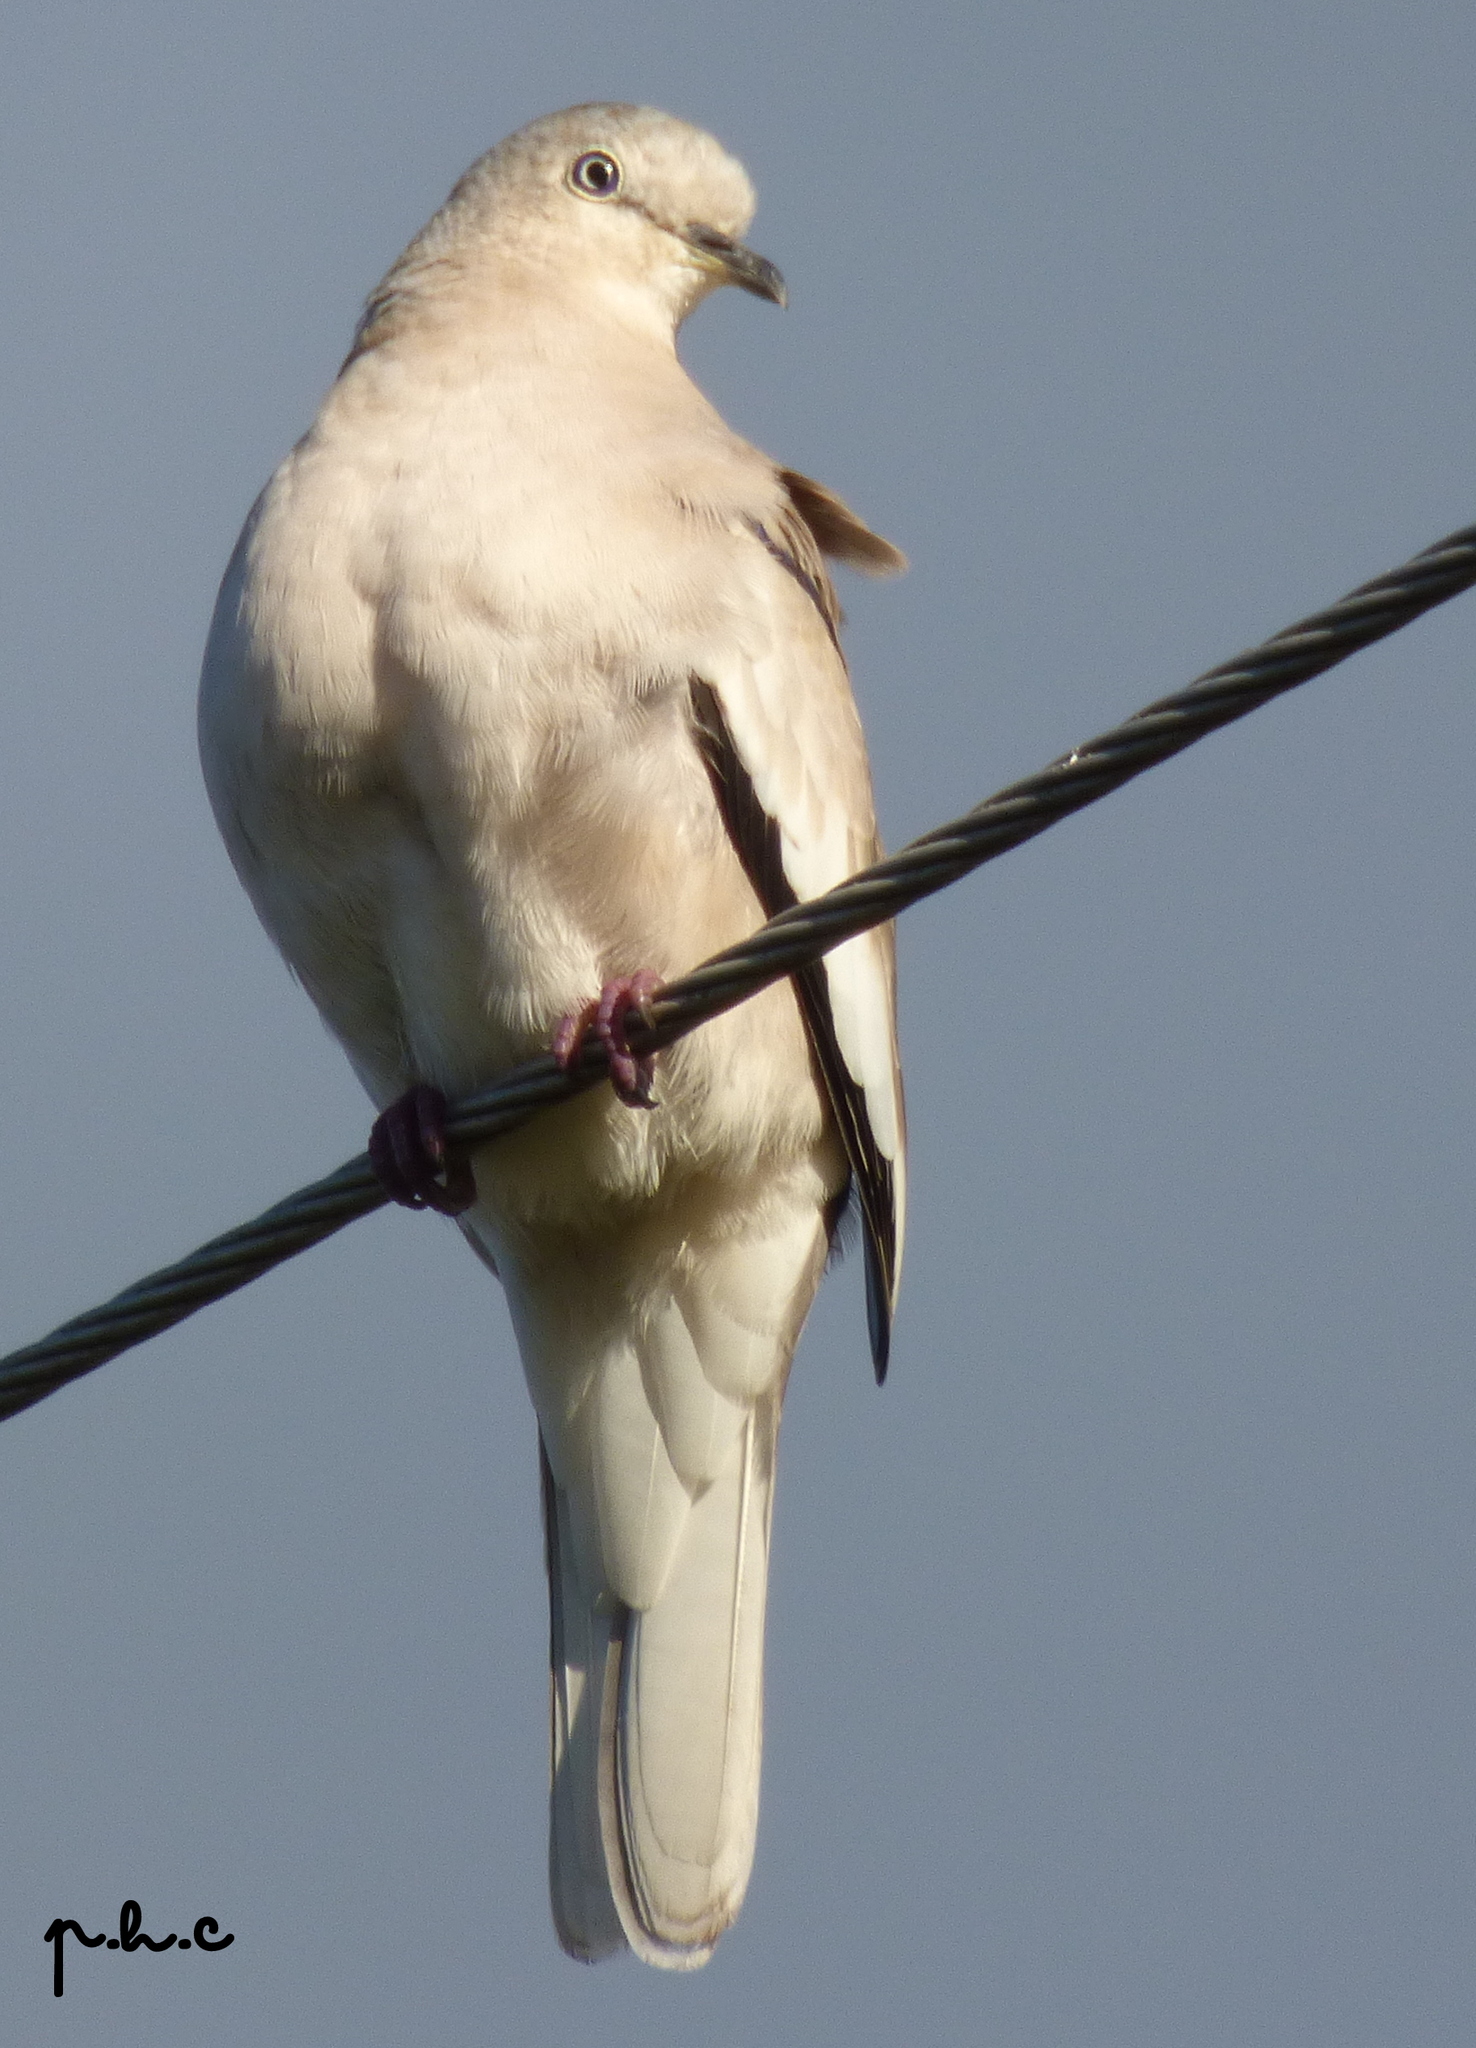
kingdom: Animalia
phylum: Chordata
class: Aves
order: Columbiformes
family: Columbidae
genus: Columbina
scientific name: Columbina picui
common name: Picui ground dove
